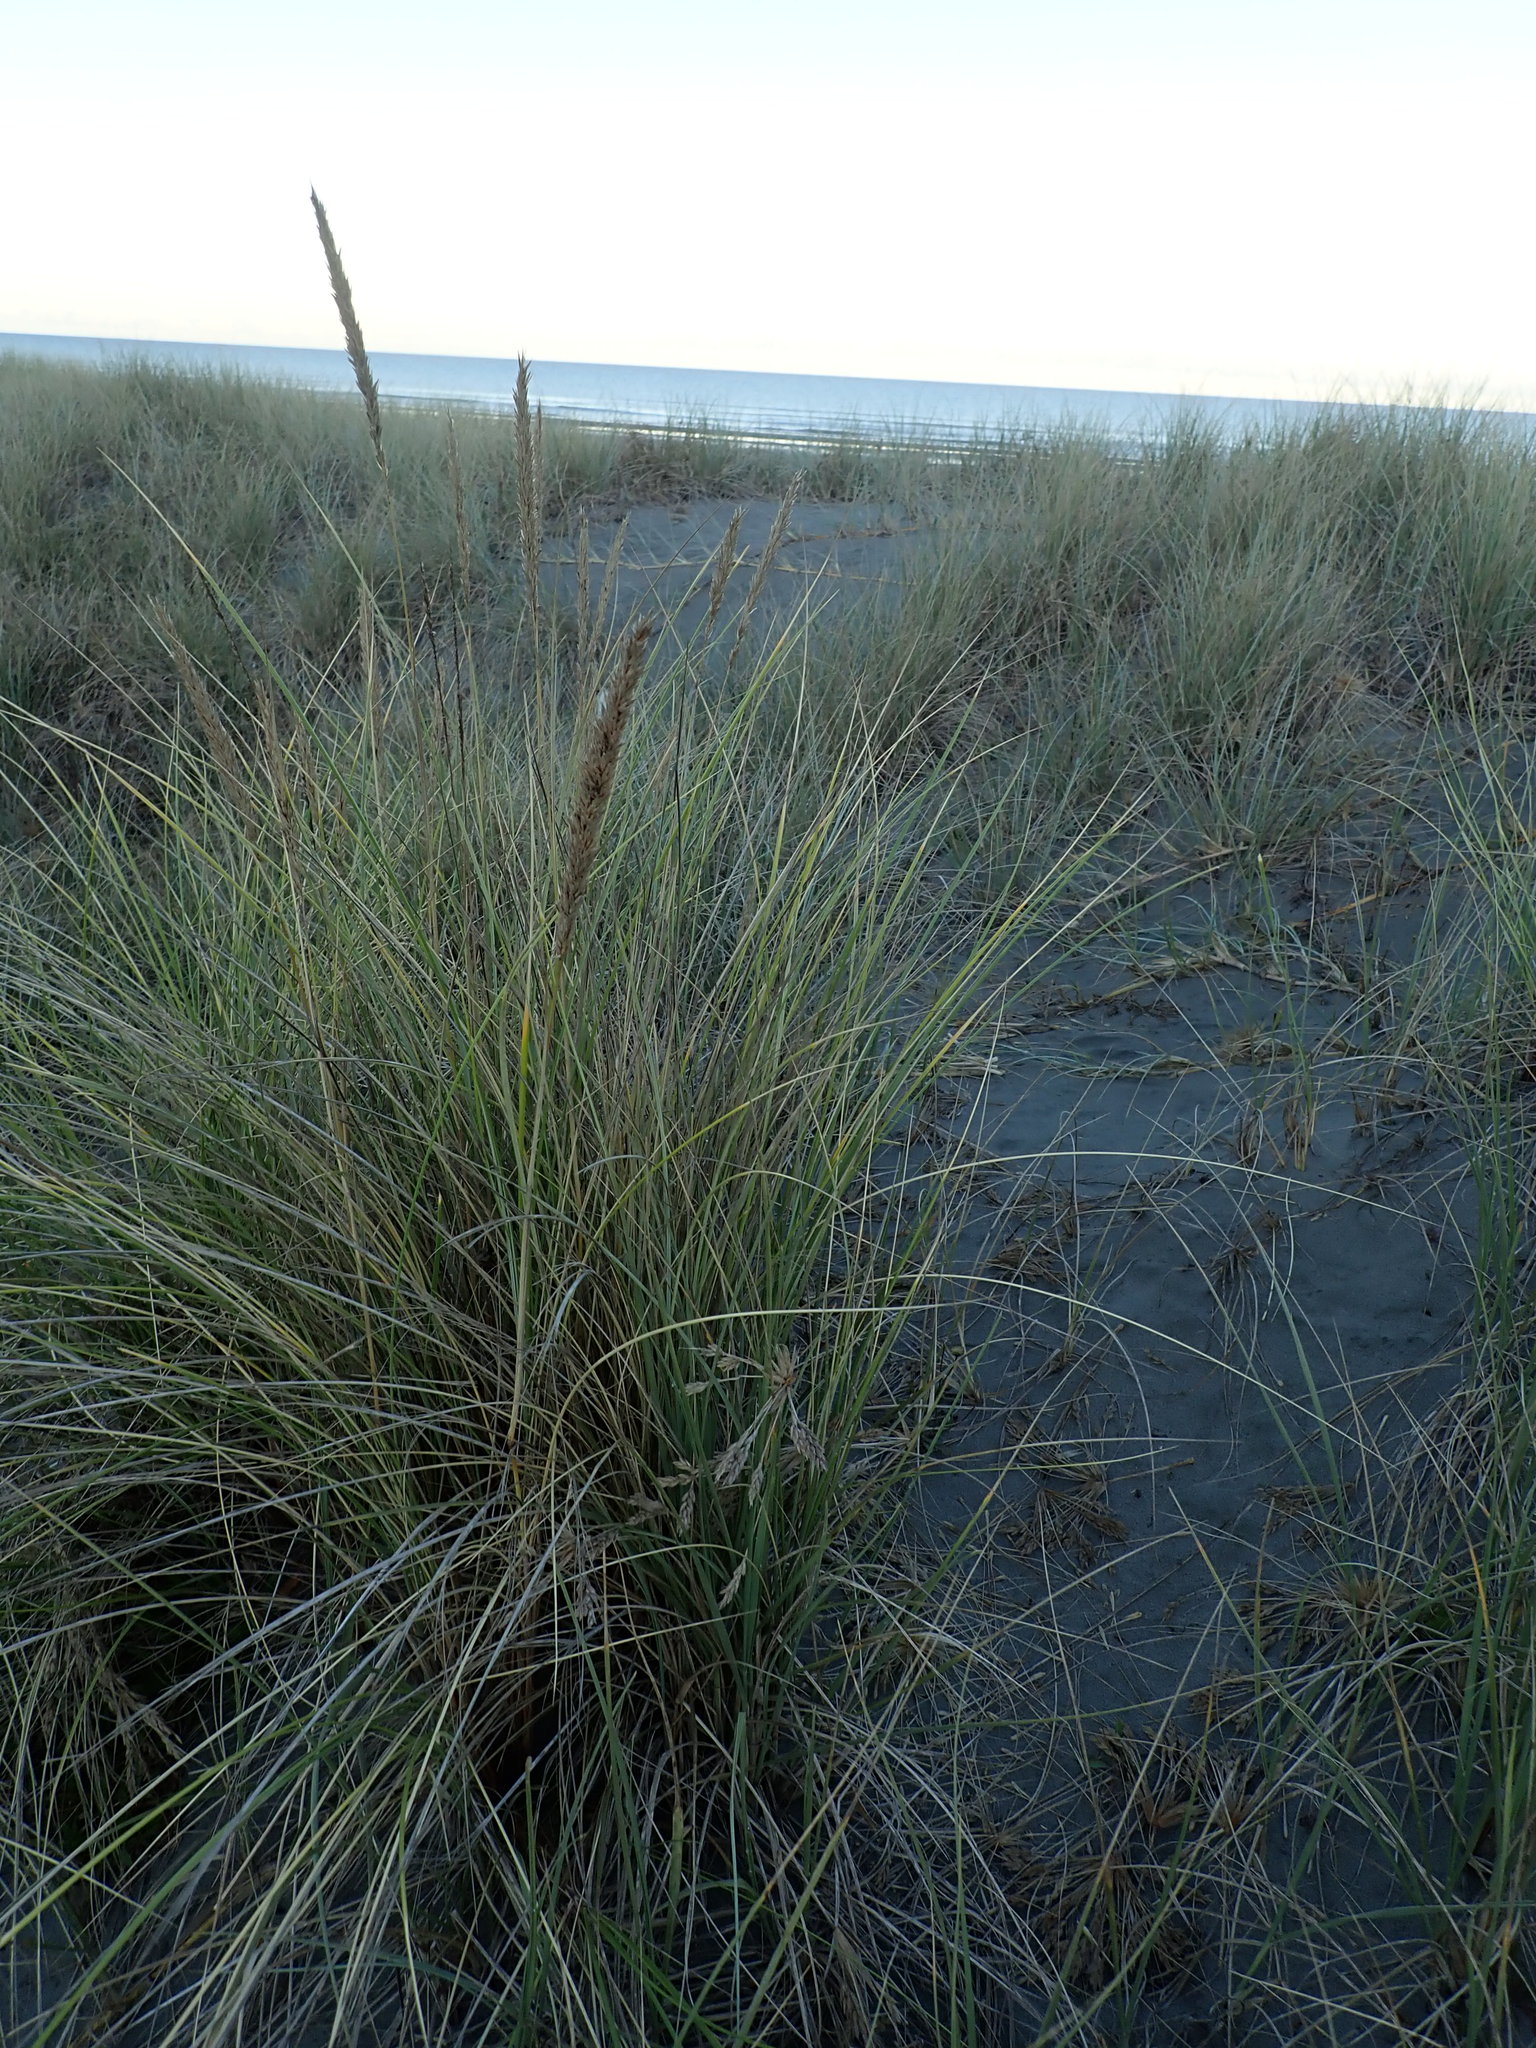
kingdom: Plantae
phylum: Tracheophyta
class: Liliopsida
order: Poales
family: Poaceae
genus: Calamagrostis
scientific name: Calamagrostis arenaria
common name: European beachgrass
